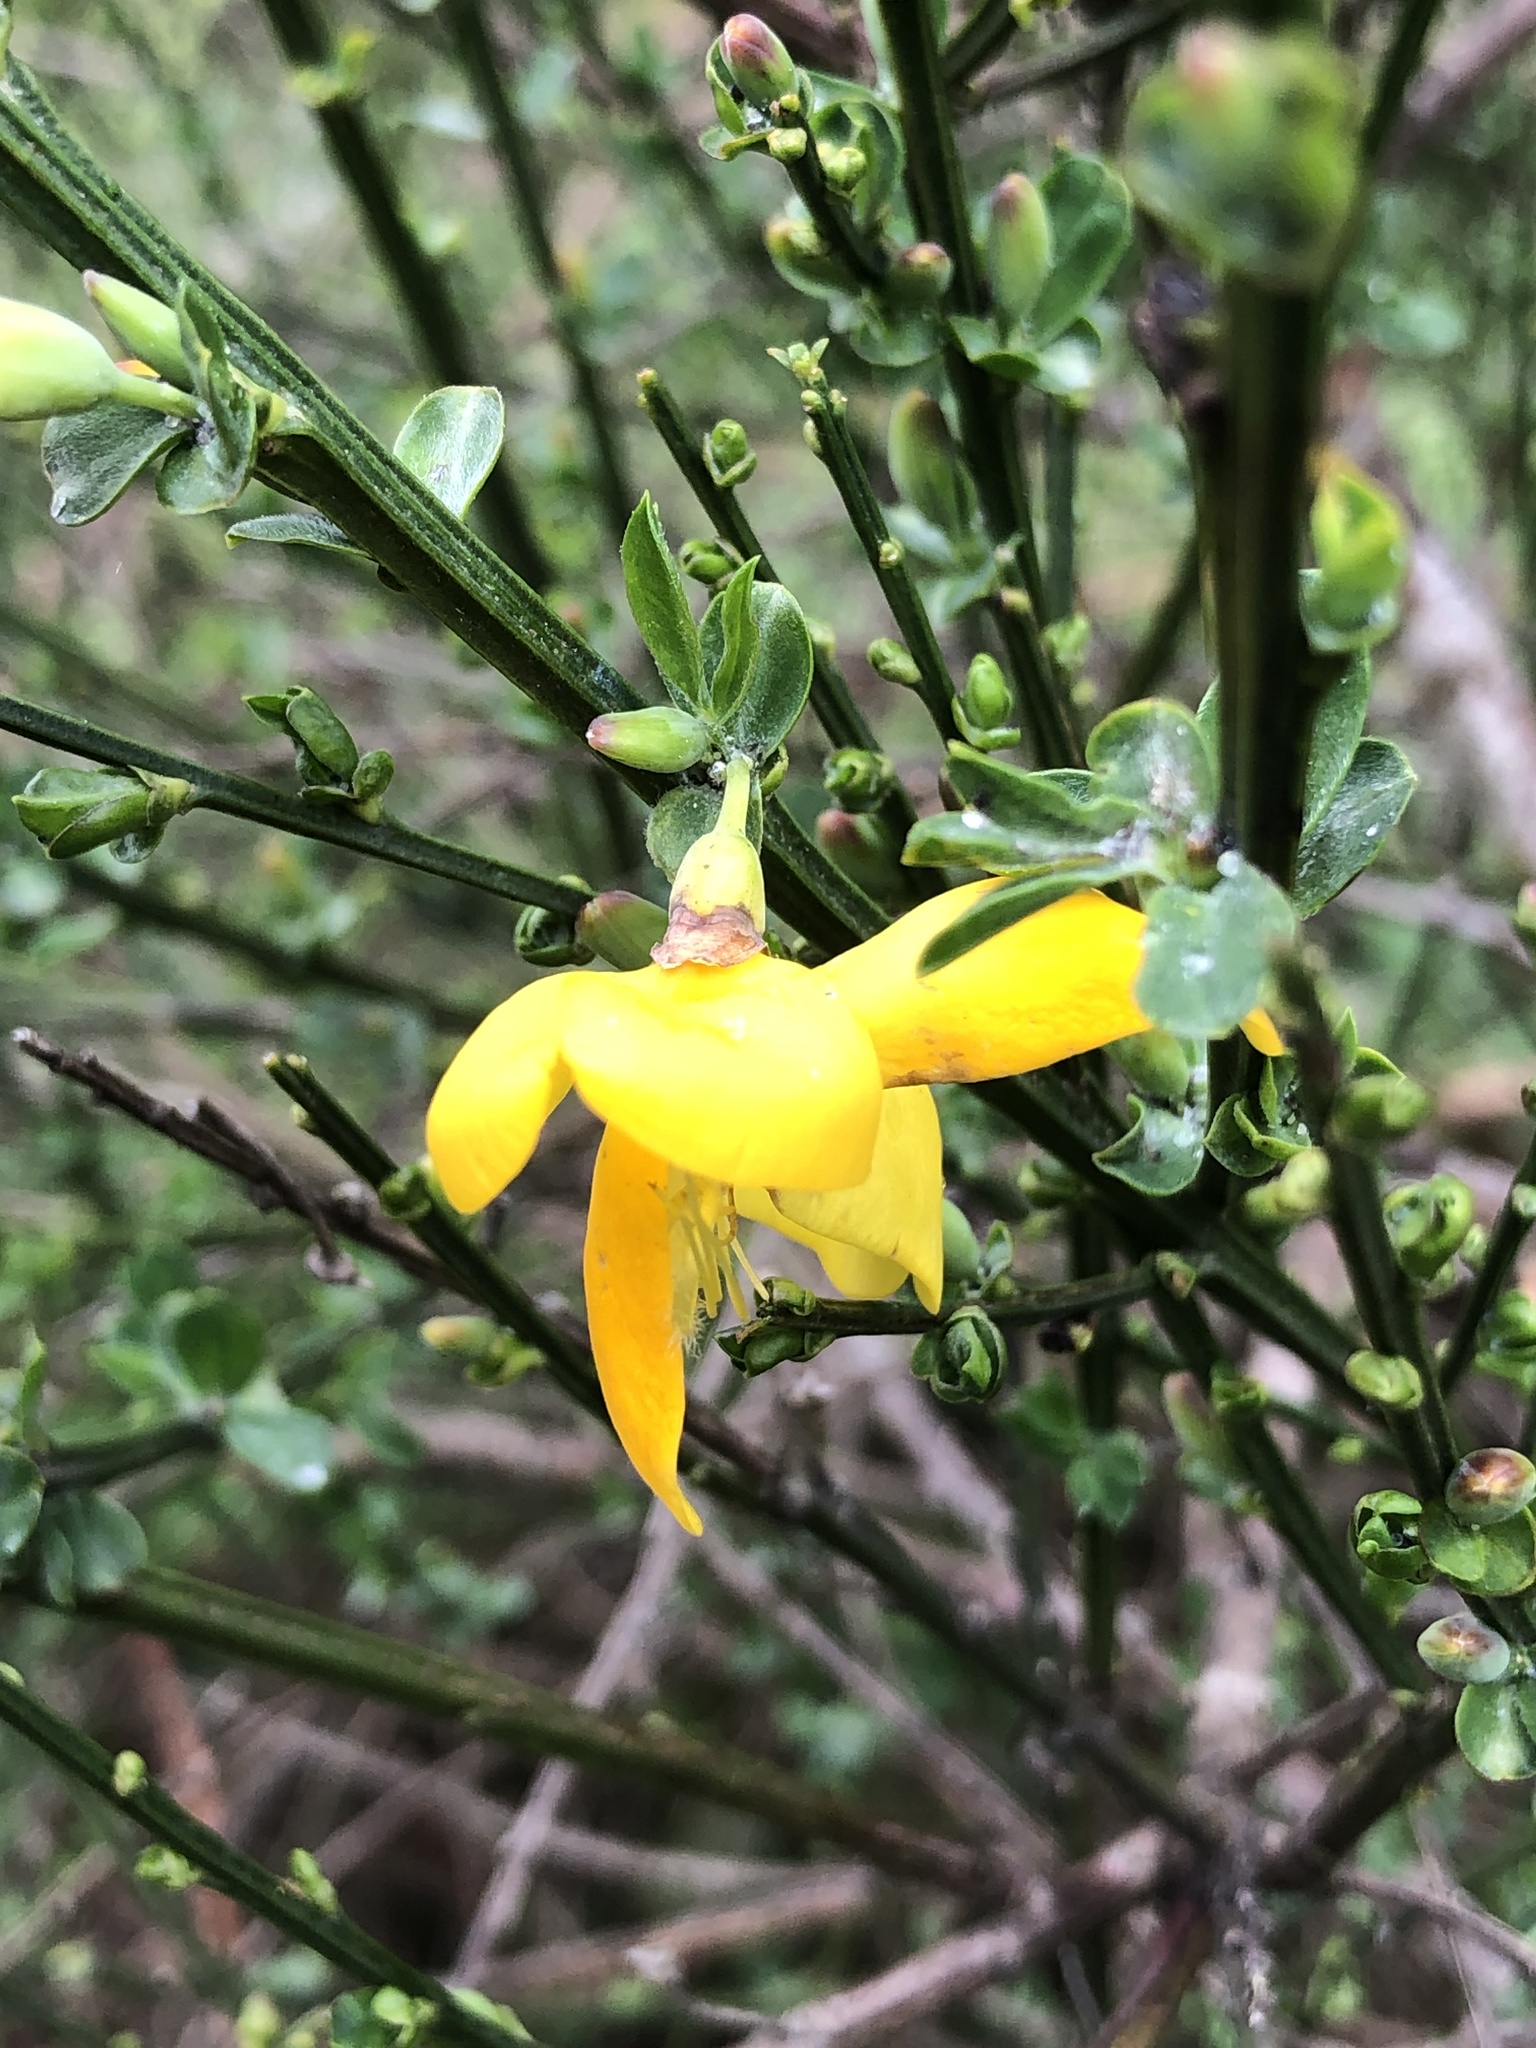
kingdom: Plantae
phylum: Tracheophyta
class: Magnoliopsida
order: Fabales
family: Fabaceae
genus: Cytisus
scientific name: Cytisus scoparius
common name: Scotch broom
